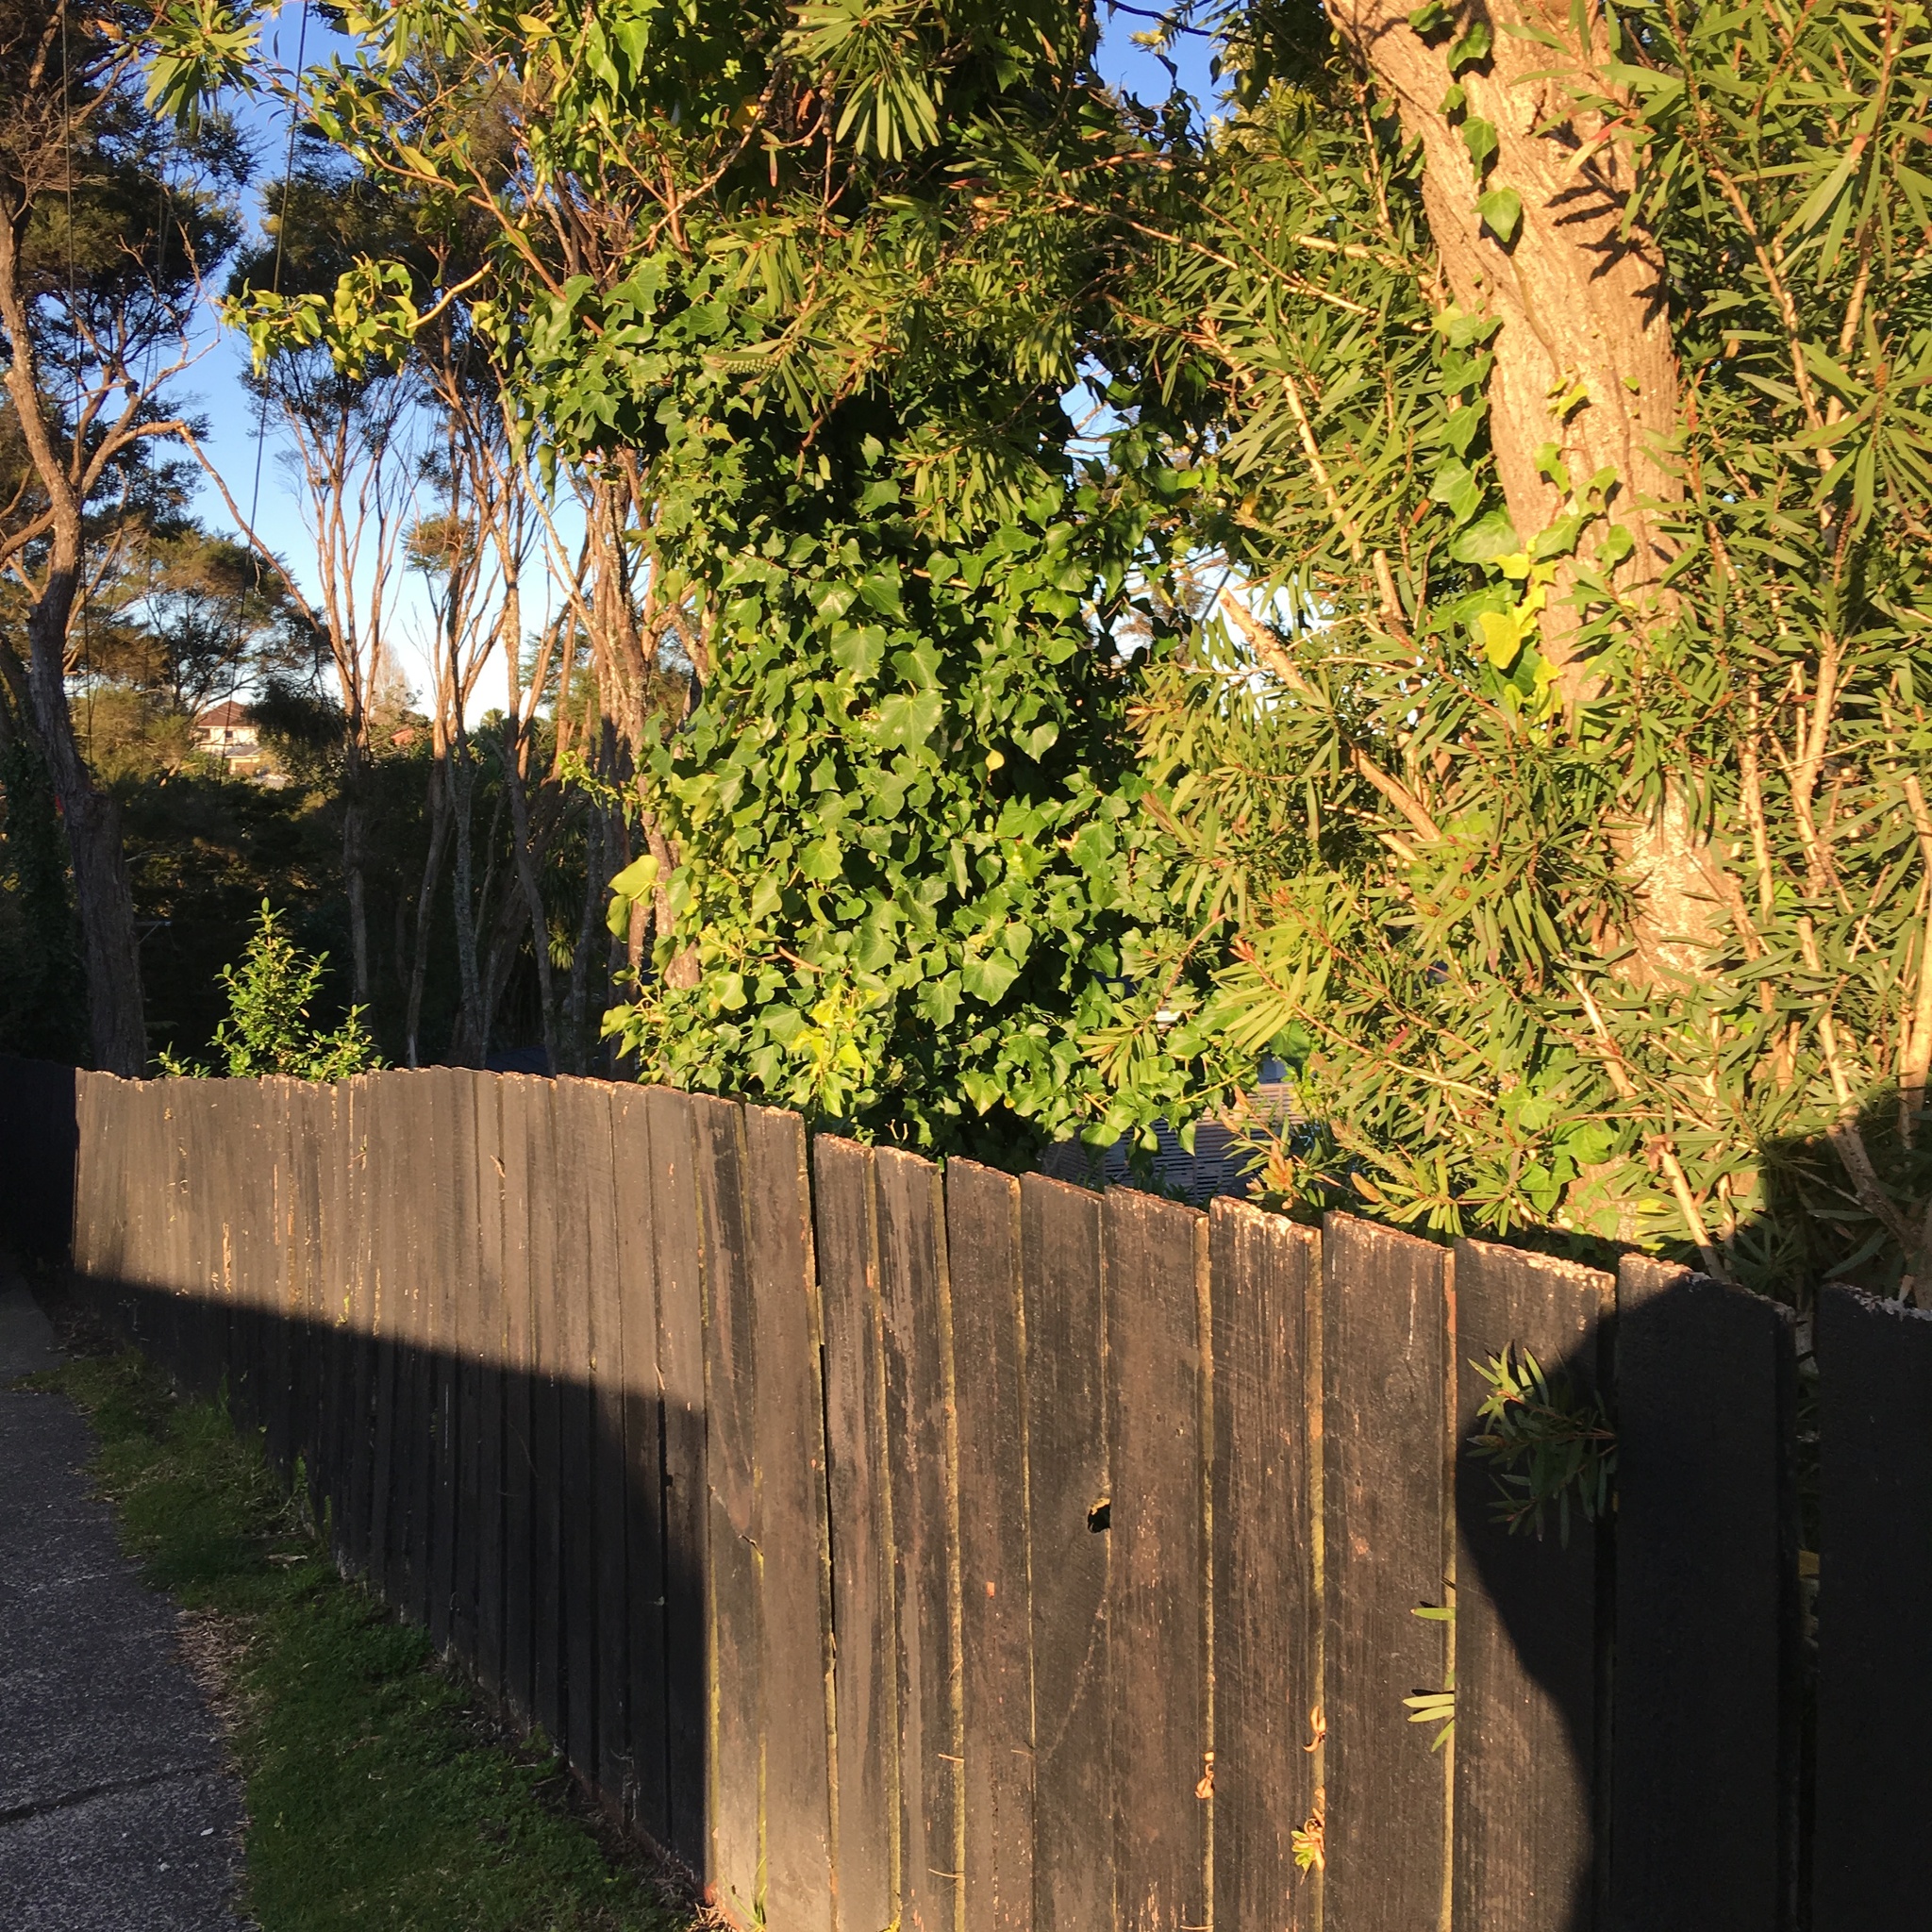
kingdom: Plantae
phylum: Tracheophyta
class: Magnoliopsida
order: Apiales
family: Araliaceae
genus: Hedera
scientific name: Hedera helix
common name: Ivy
